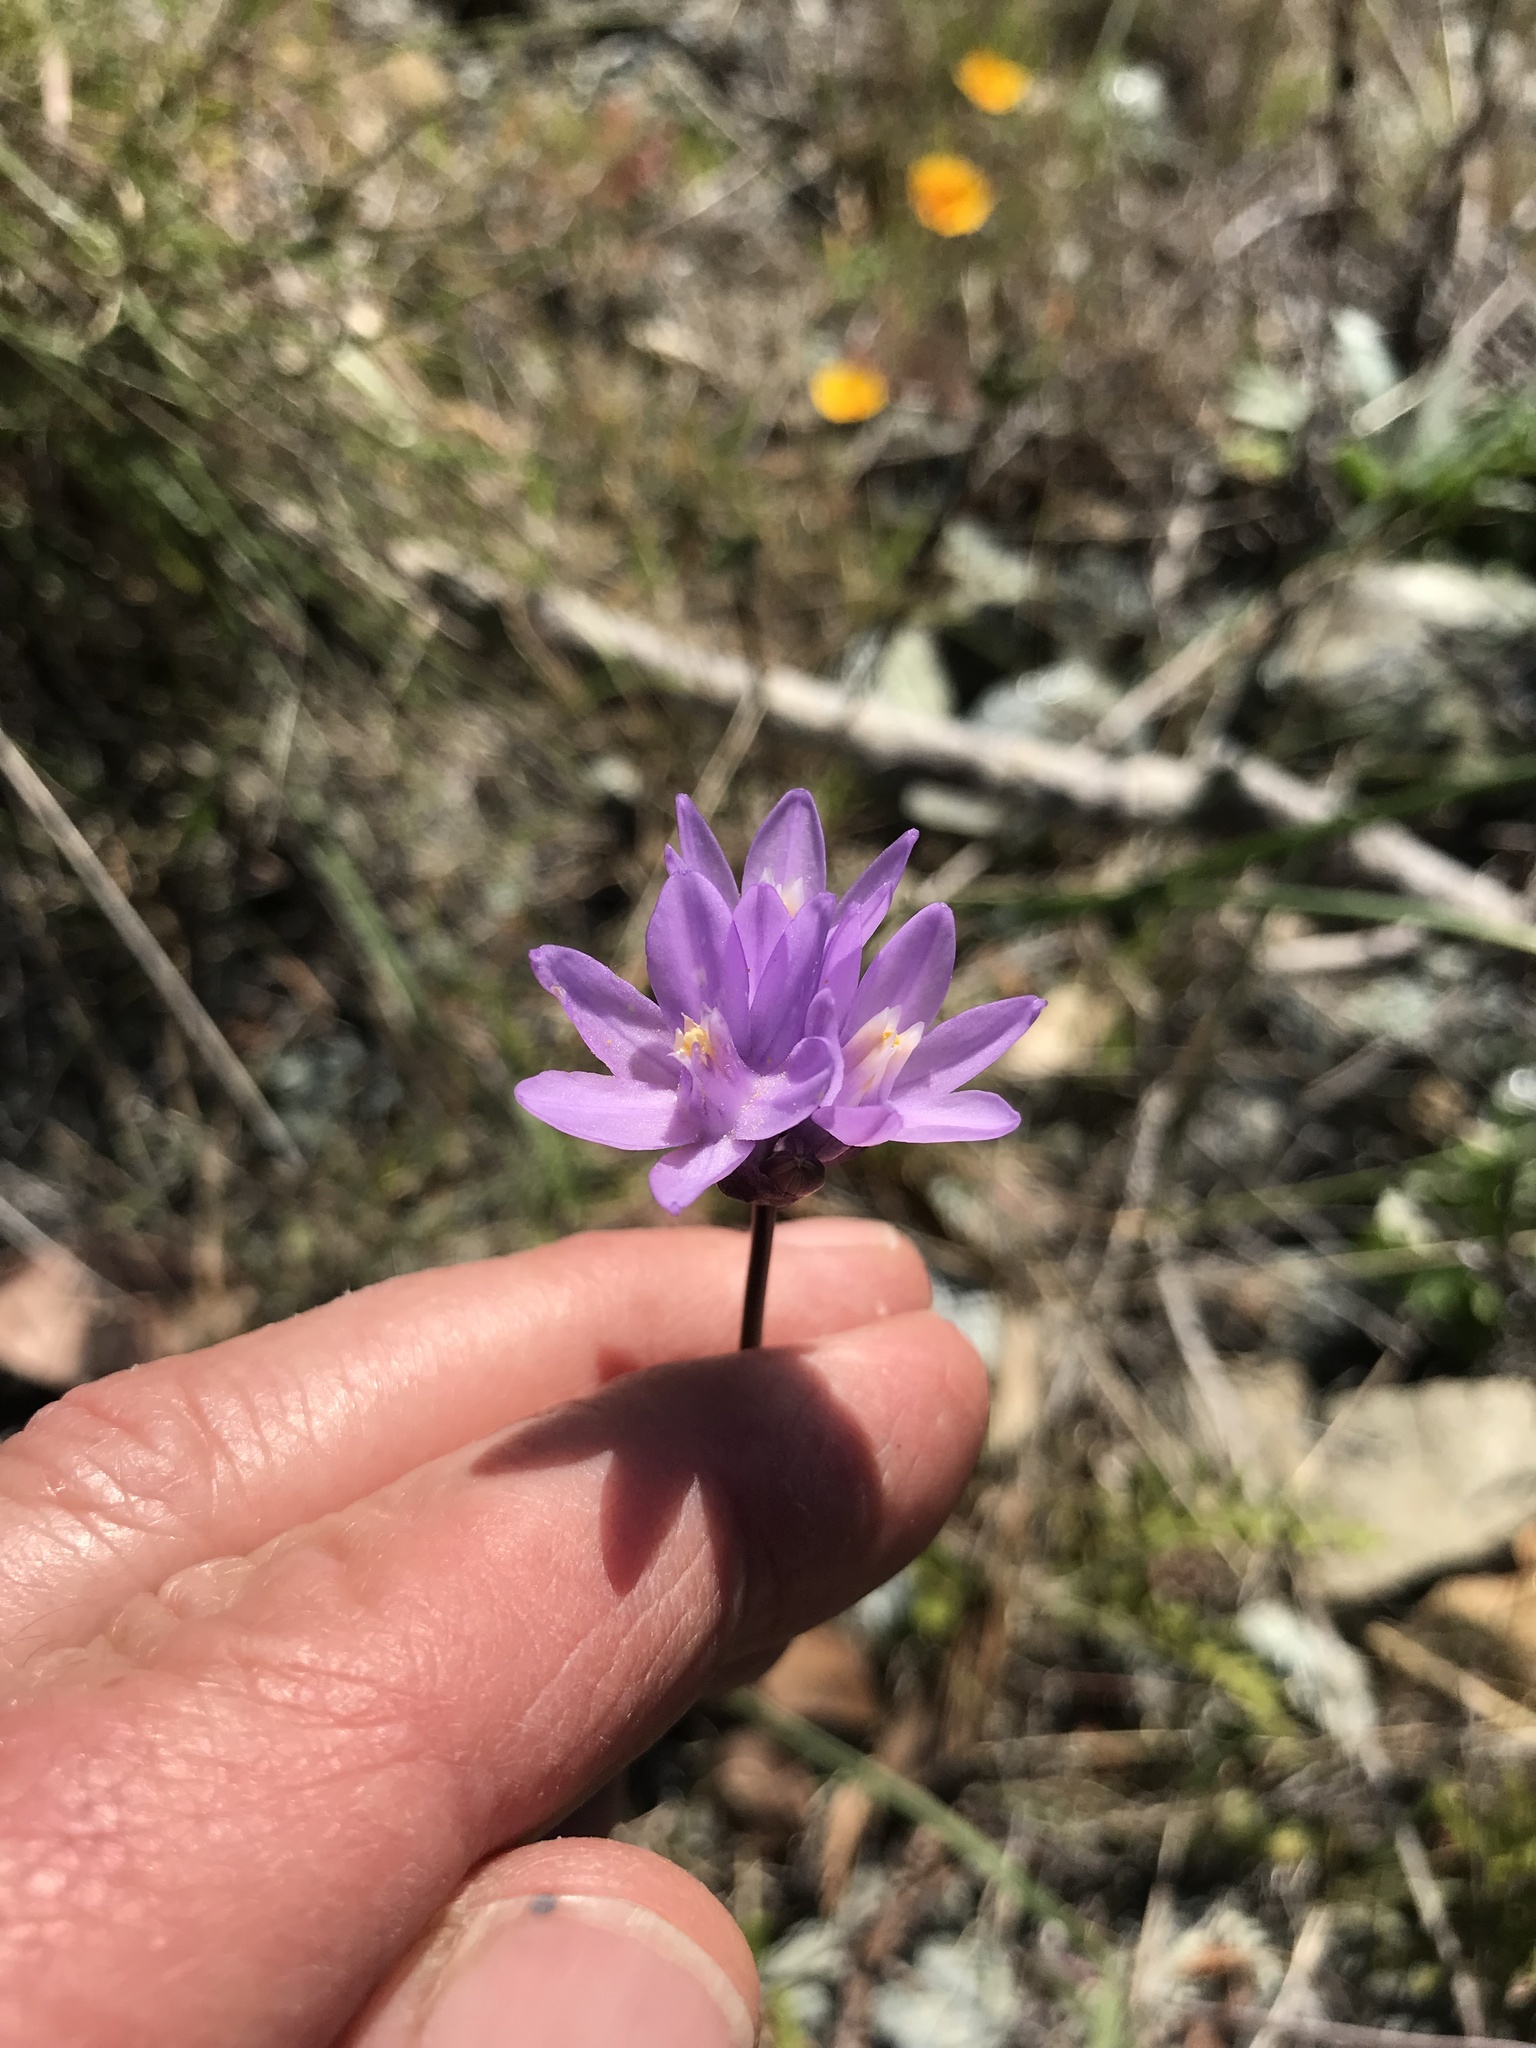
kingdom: Plantae
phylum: Tracheophyta
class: Liliopsida
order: Asparagales
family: Asparagaceae
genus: Dipterostemon
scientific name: Dipterostemon capitatus
